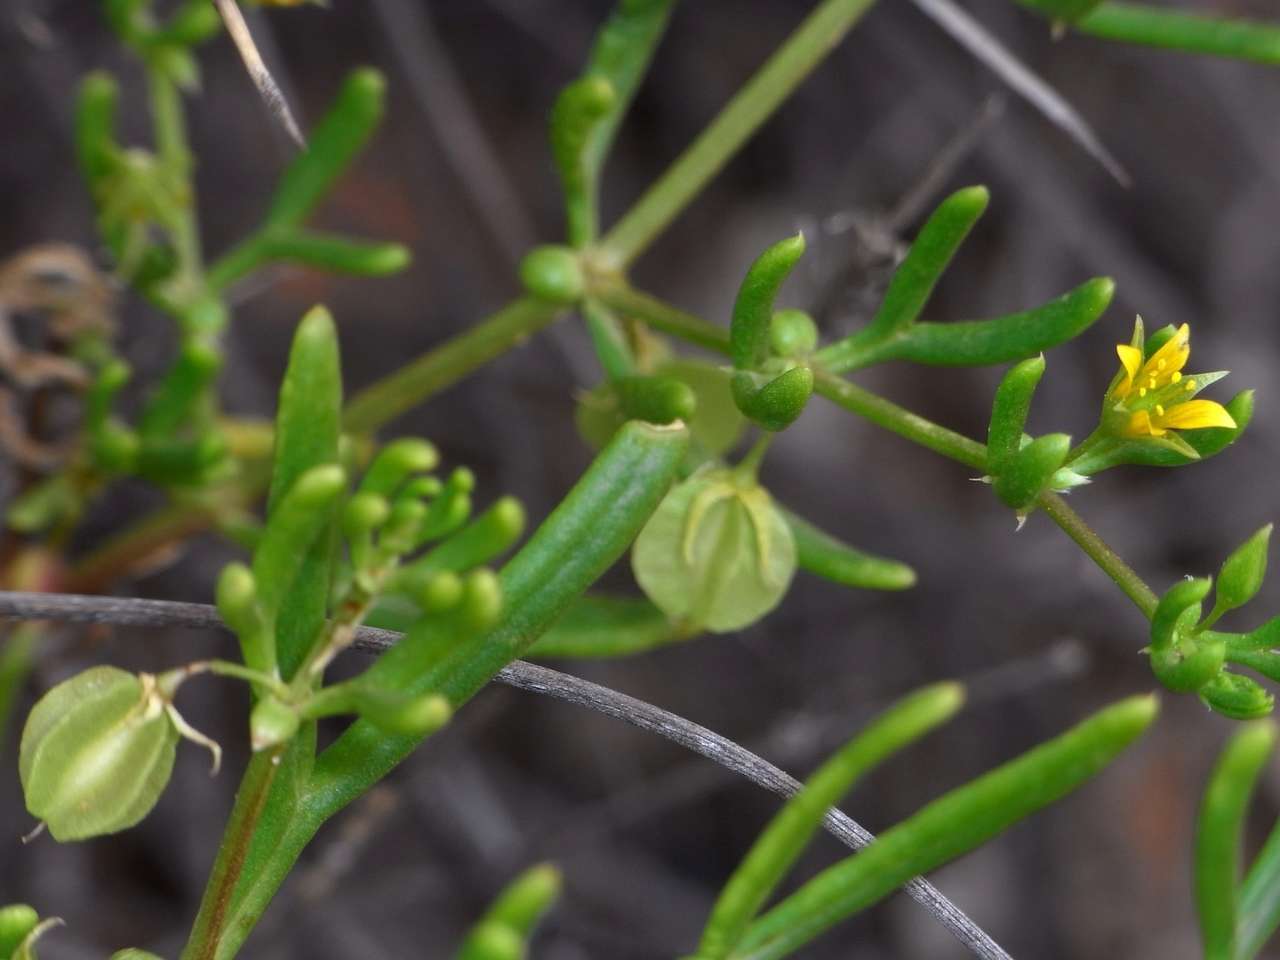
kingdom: Plantae
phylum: Tracheophyta
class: Magnoliopsida
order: Zygophyllales
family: Zygophyllaceae
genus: Roepera
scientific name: Roepera eremaea
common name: Climbing twinleaf
